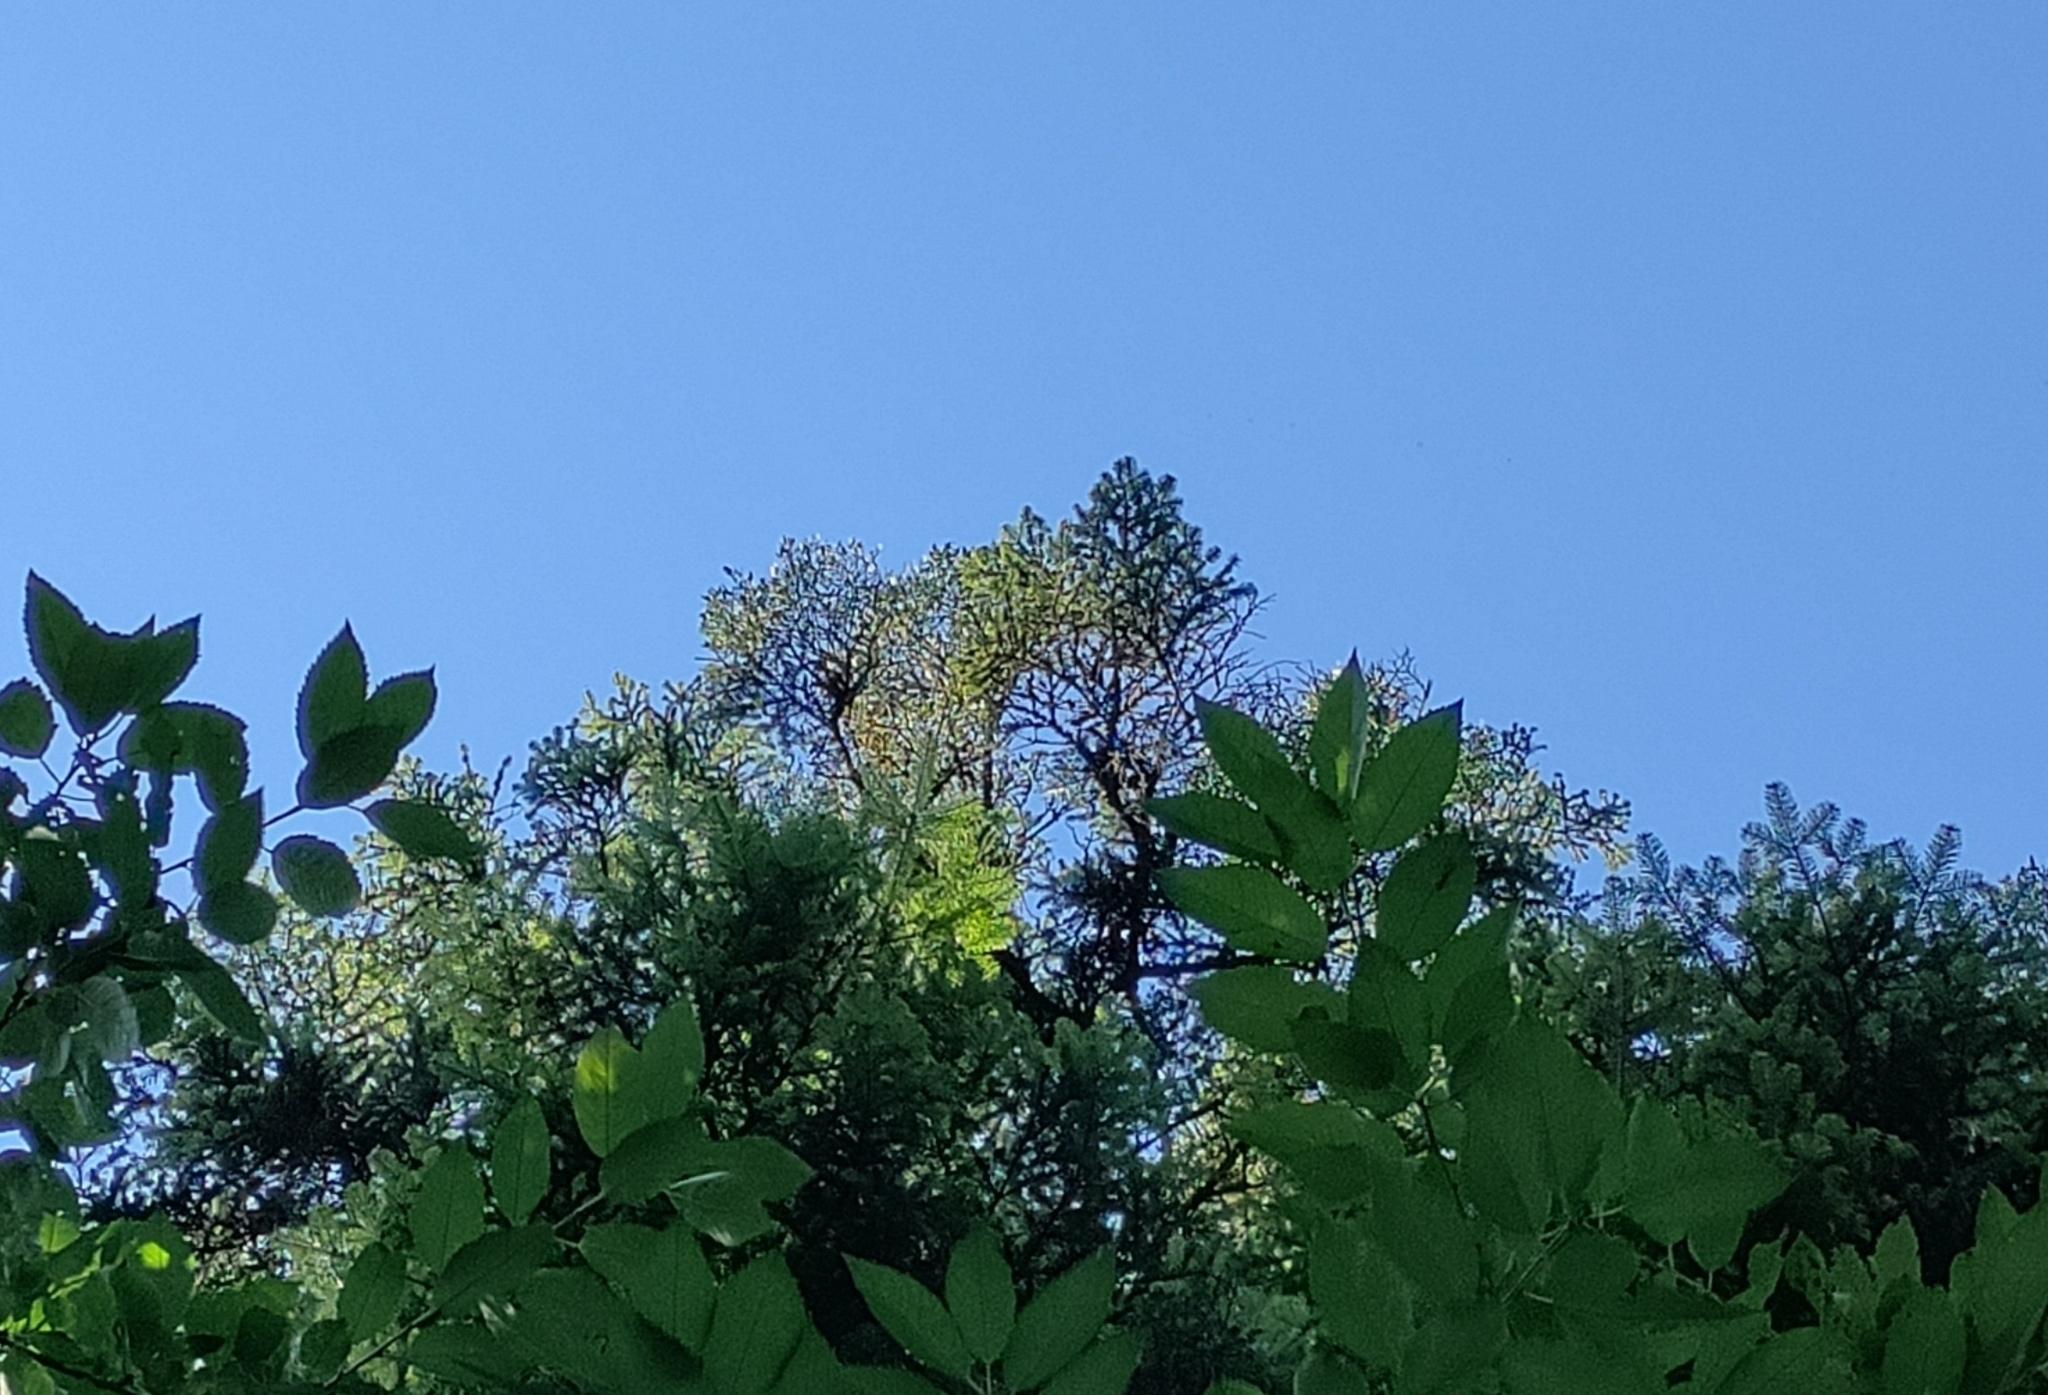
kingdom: Plantae
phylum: Tracheophyta
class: Magnoliopsida
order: Santalales
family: Viscaceae
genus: Viscum
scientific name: Viscum album
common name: Mistletoe
